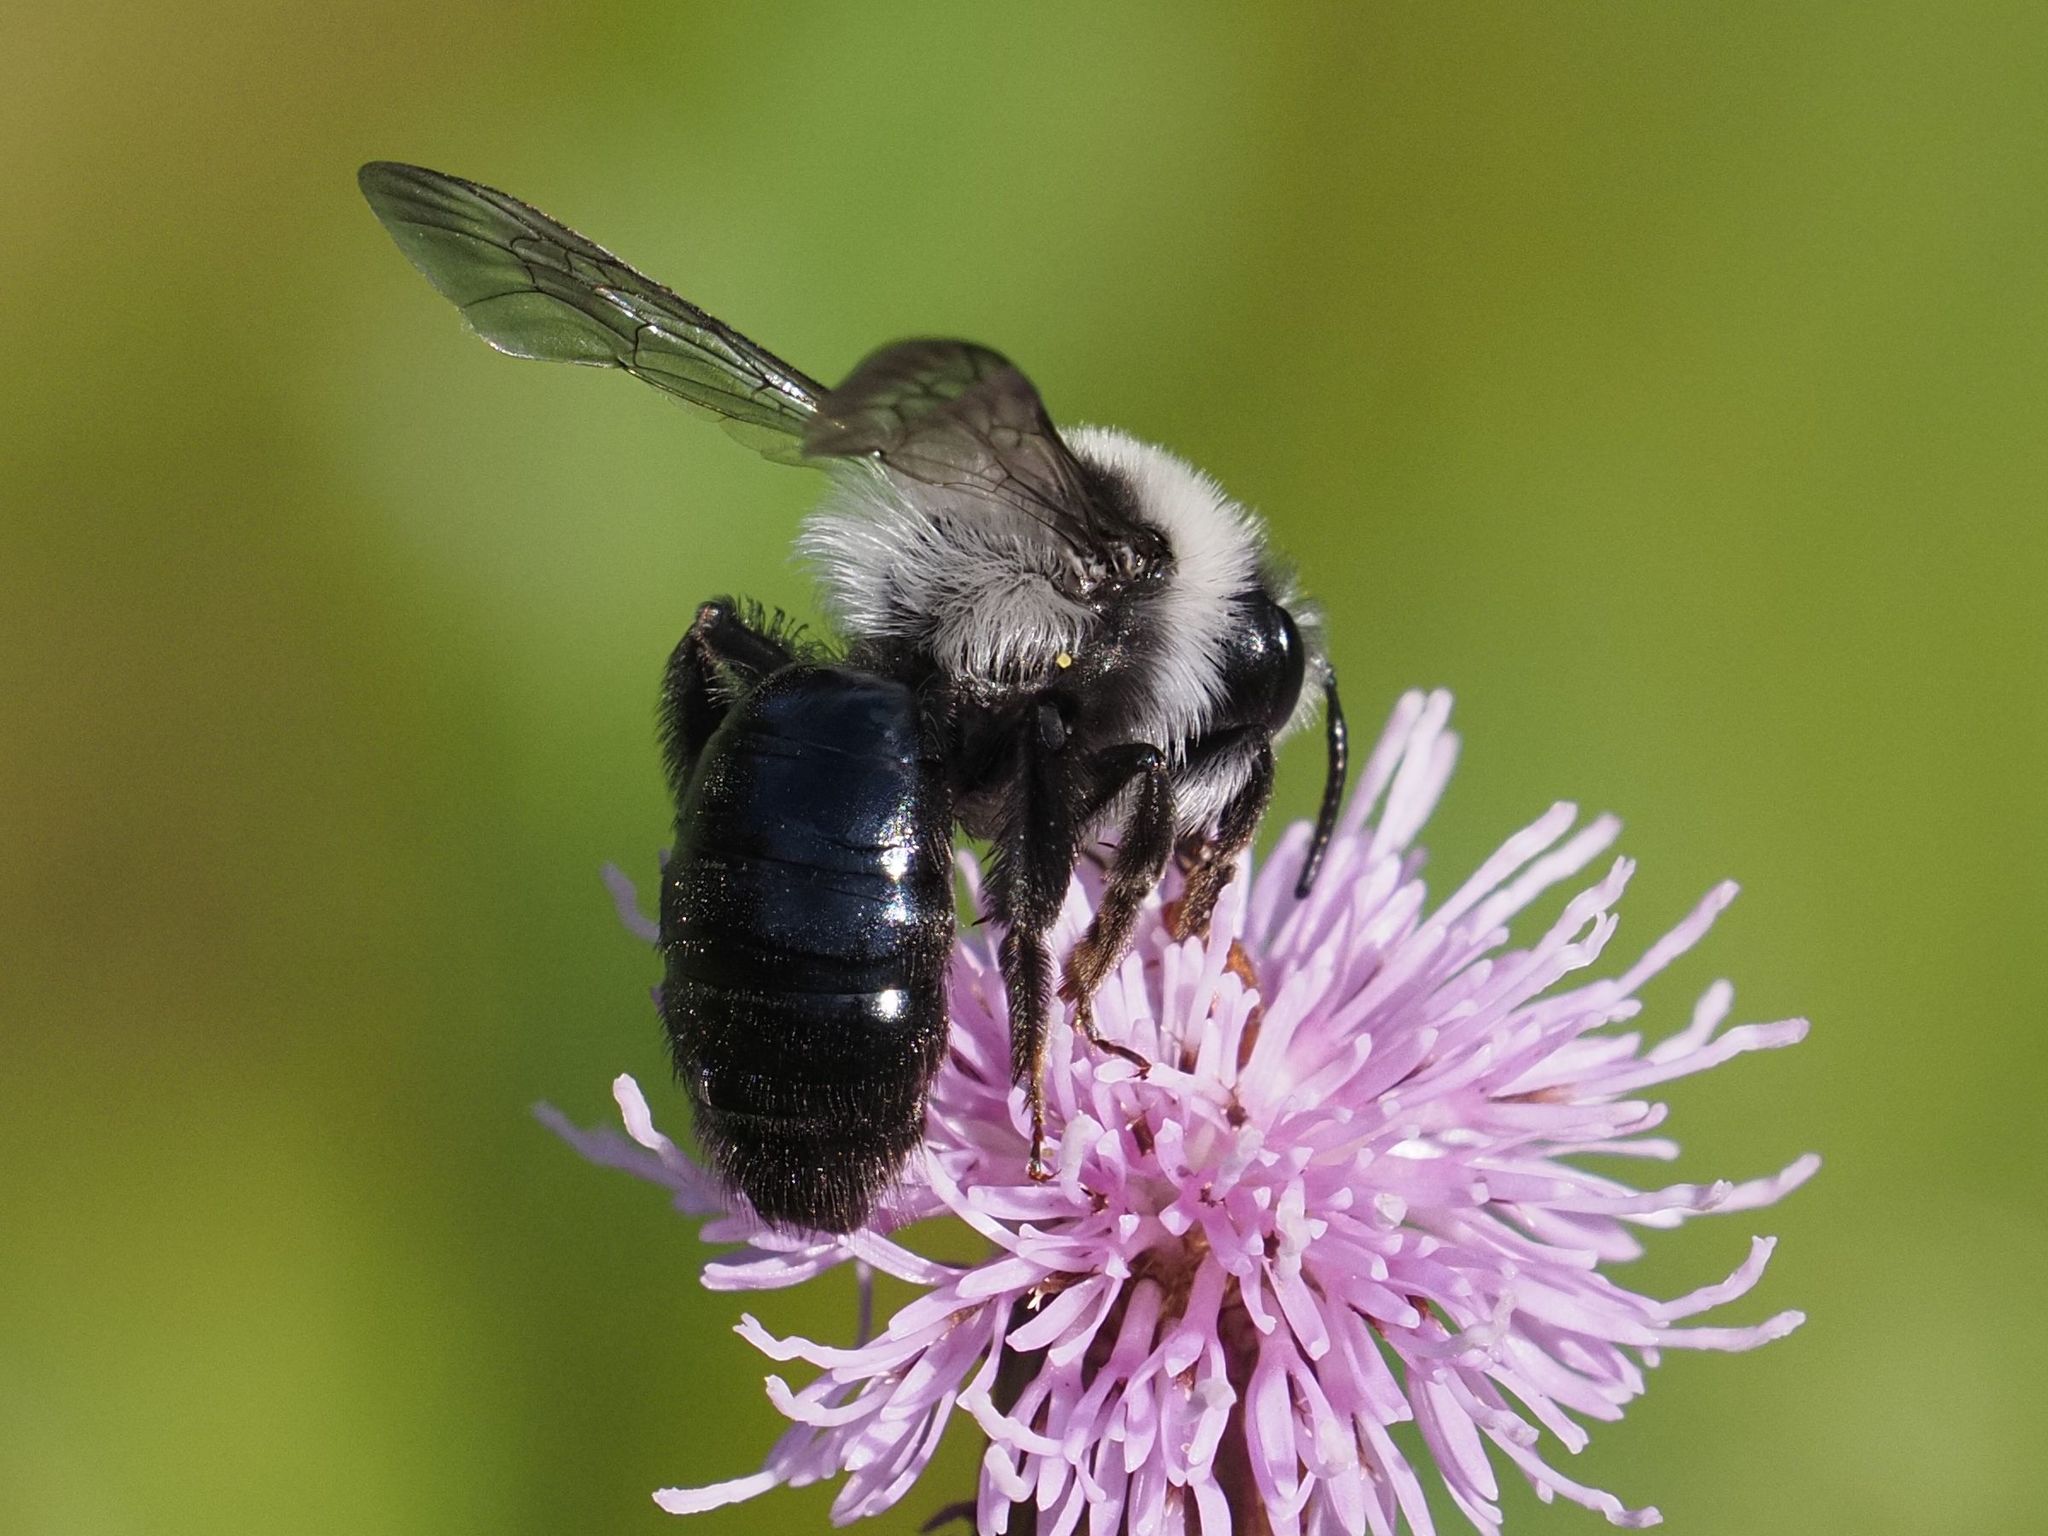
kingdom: Animalia
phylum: Arthropoda
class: Insecta
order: Hymenoptera
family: Andrenidae
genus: Andrena
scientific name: Andrena cineraria
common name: Ashy mining bee
